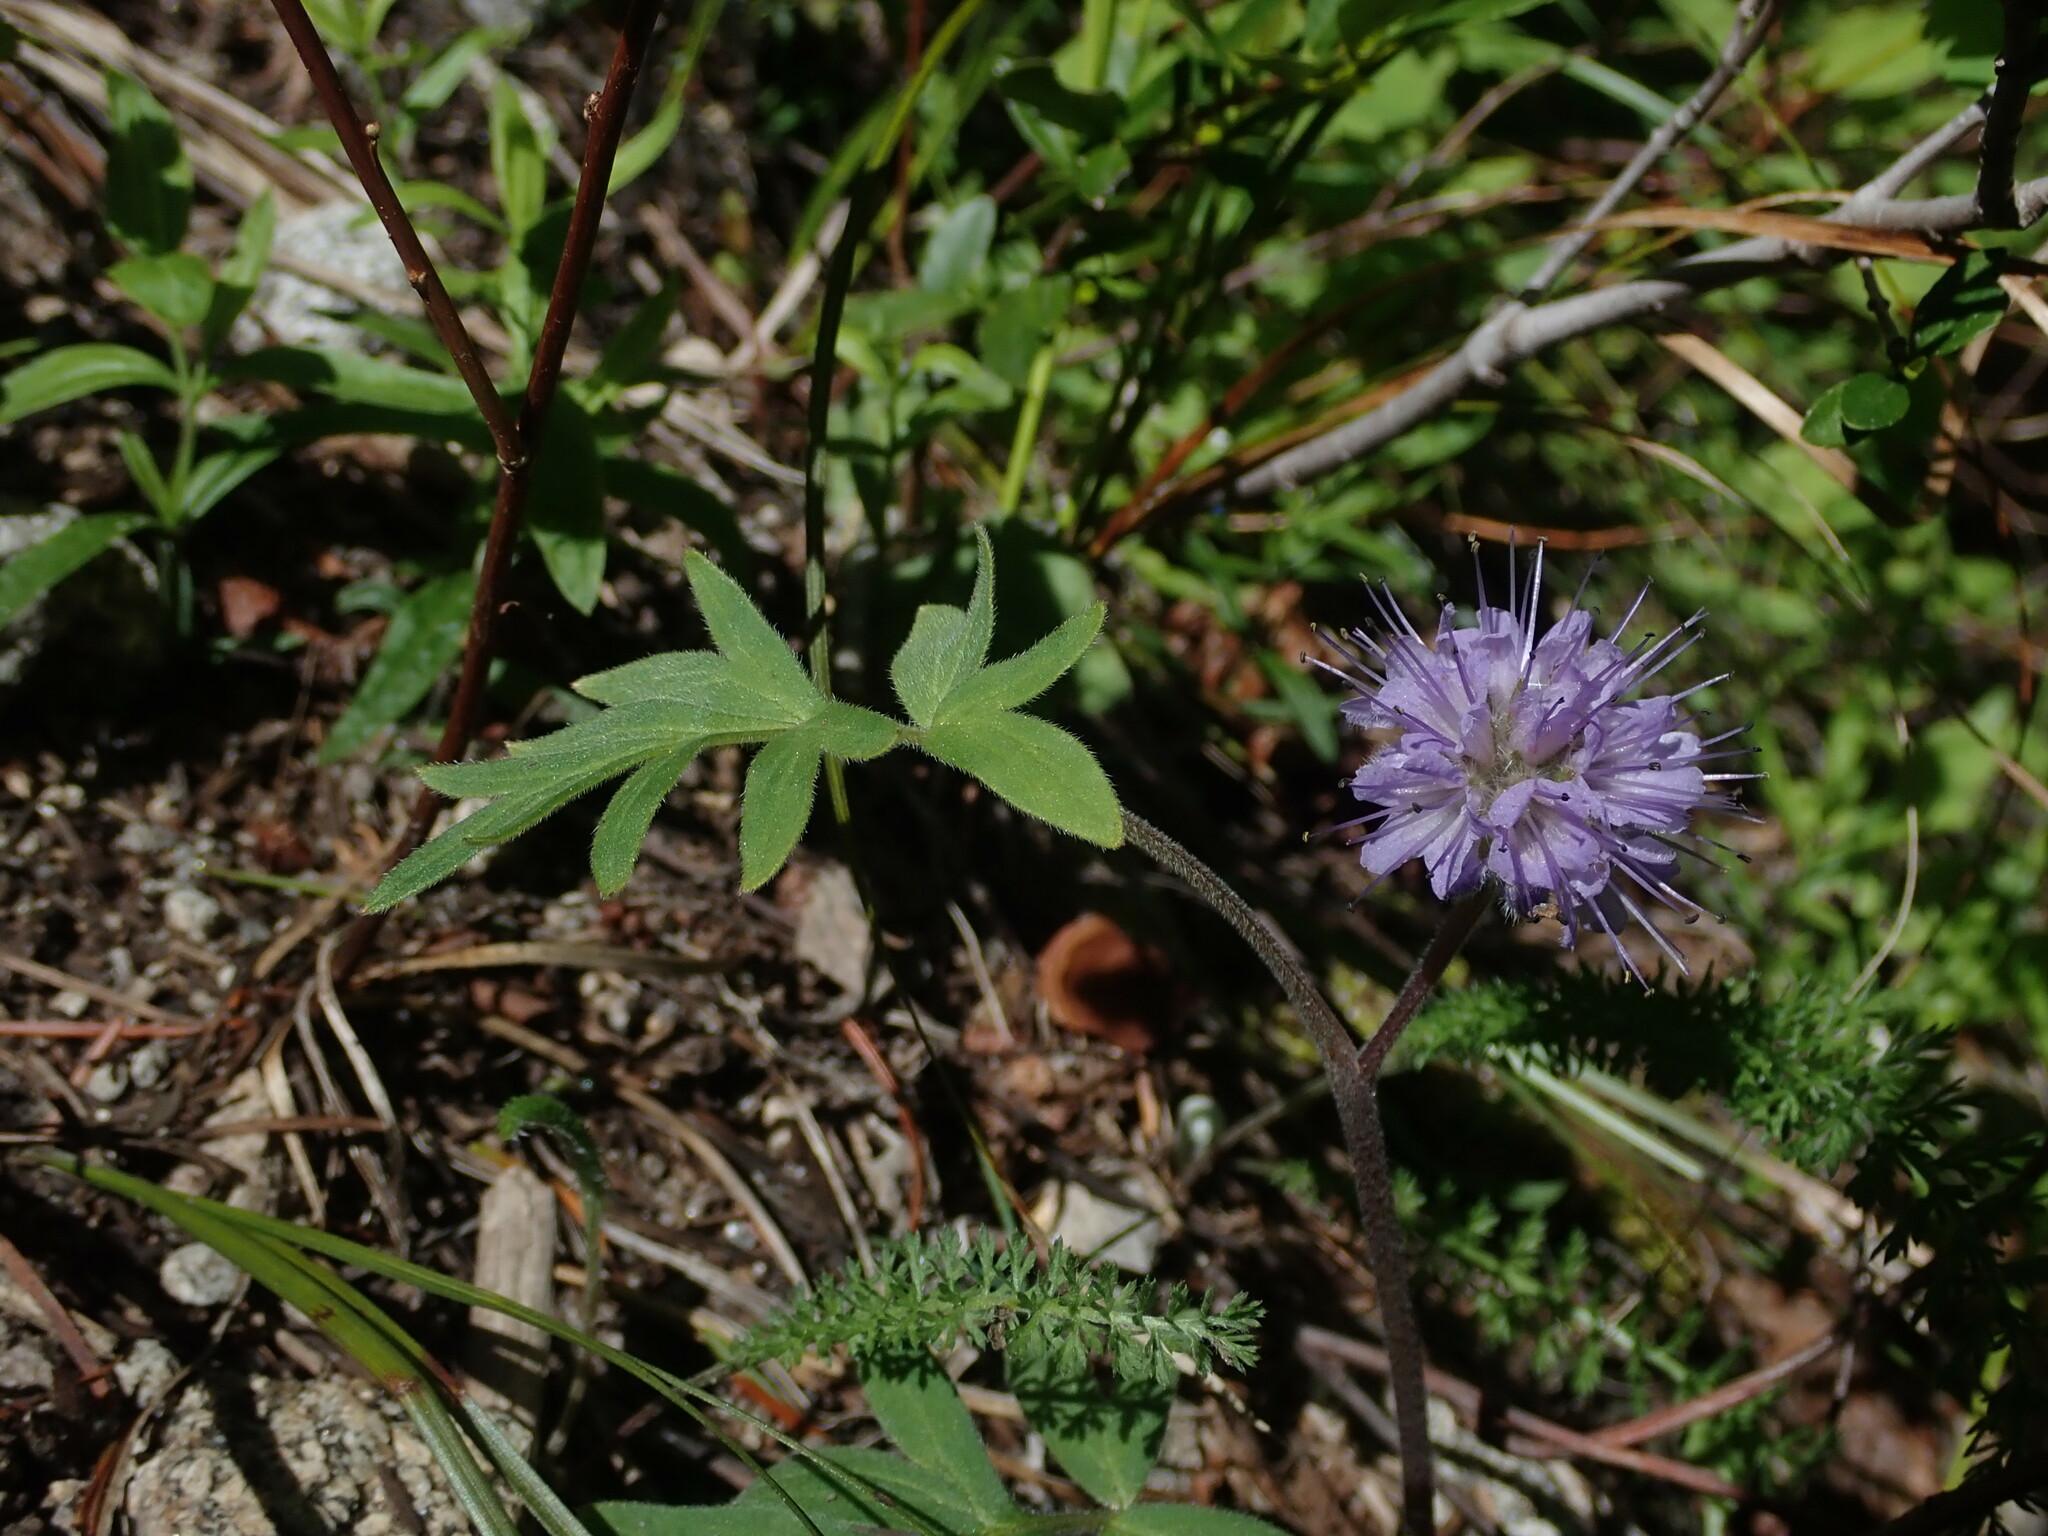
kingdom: Plantae
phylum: Tracheophyta
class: Magnoliopsida
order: Boraginales
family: Hydrophyllaceae
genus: Hydrophyllum
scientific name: Hydrophyllum capitatum
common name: Woollen-breeches
